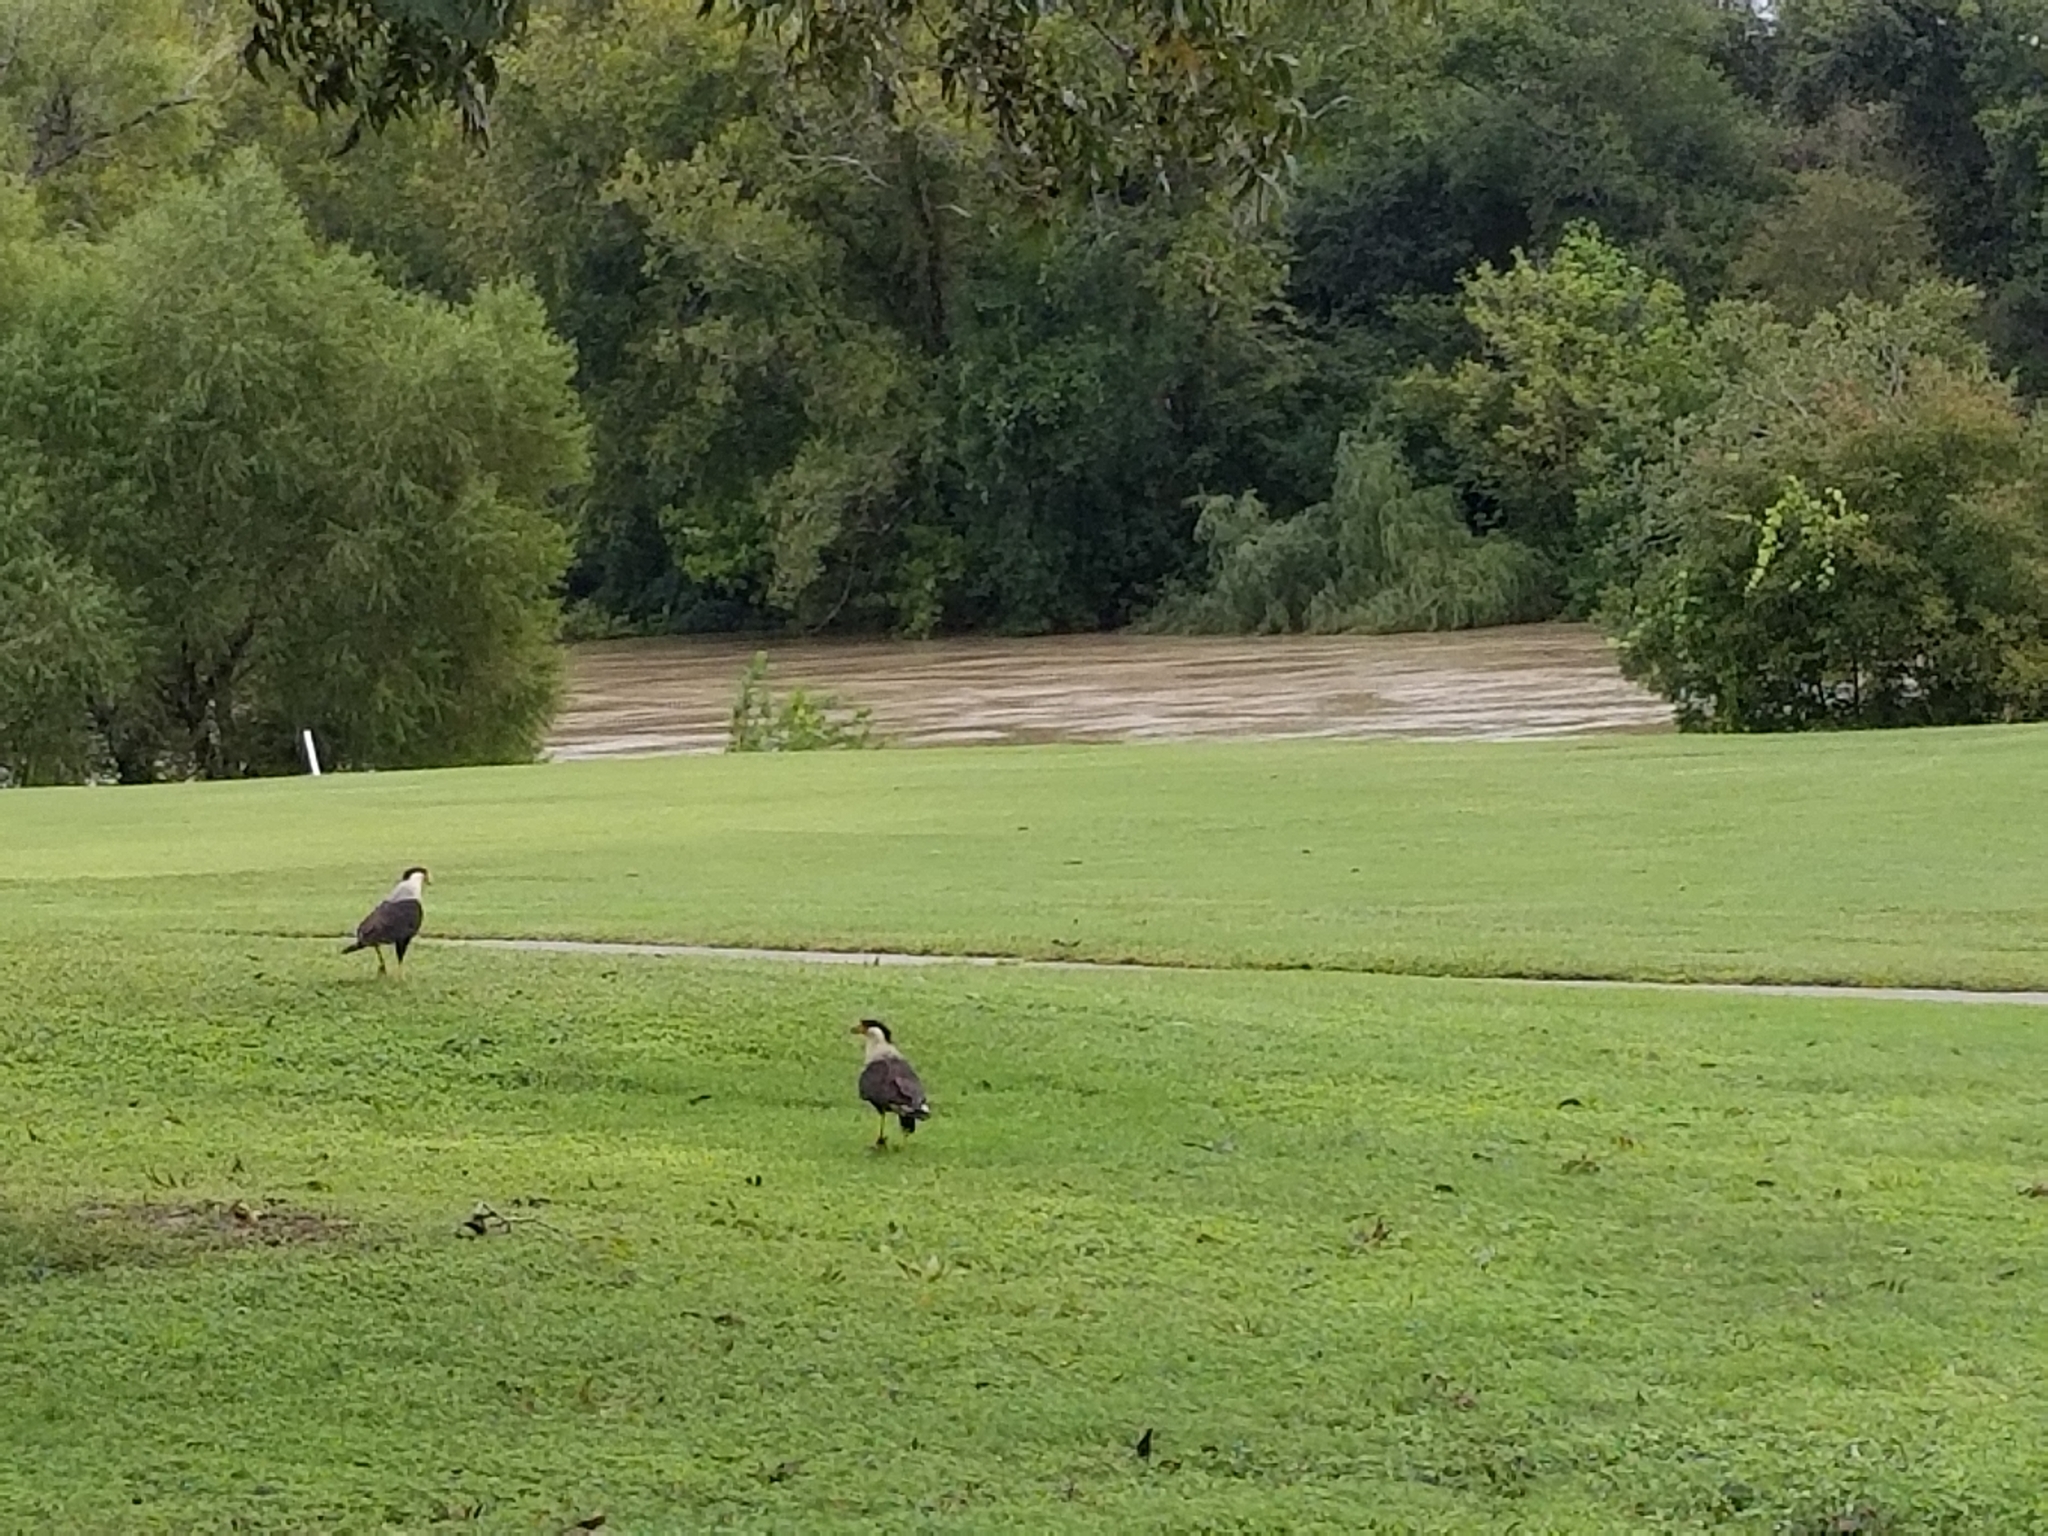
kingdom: Animalia
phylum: Chordata
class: Aves
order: Falconiformes
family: Falconidae
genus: Caracara
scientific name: Caracara plancus
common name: Southern caracara
